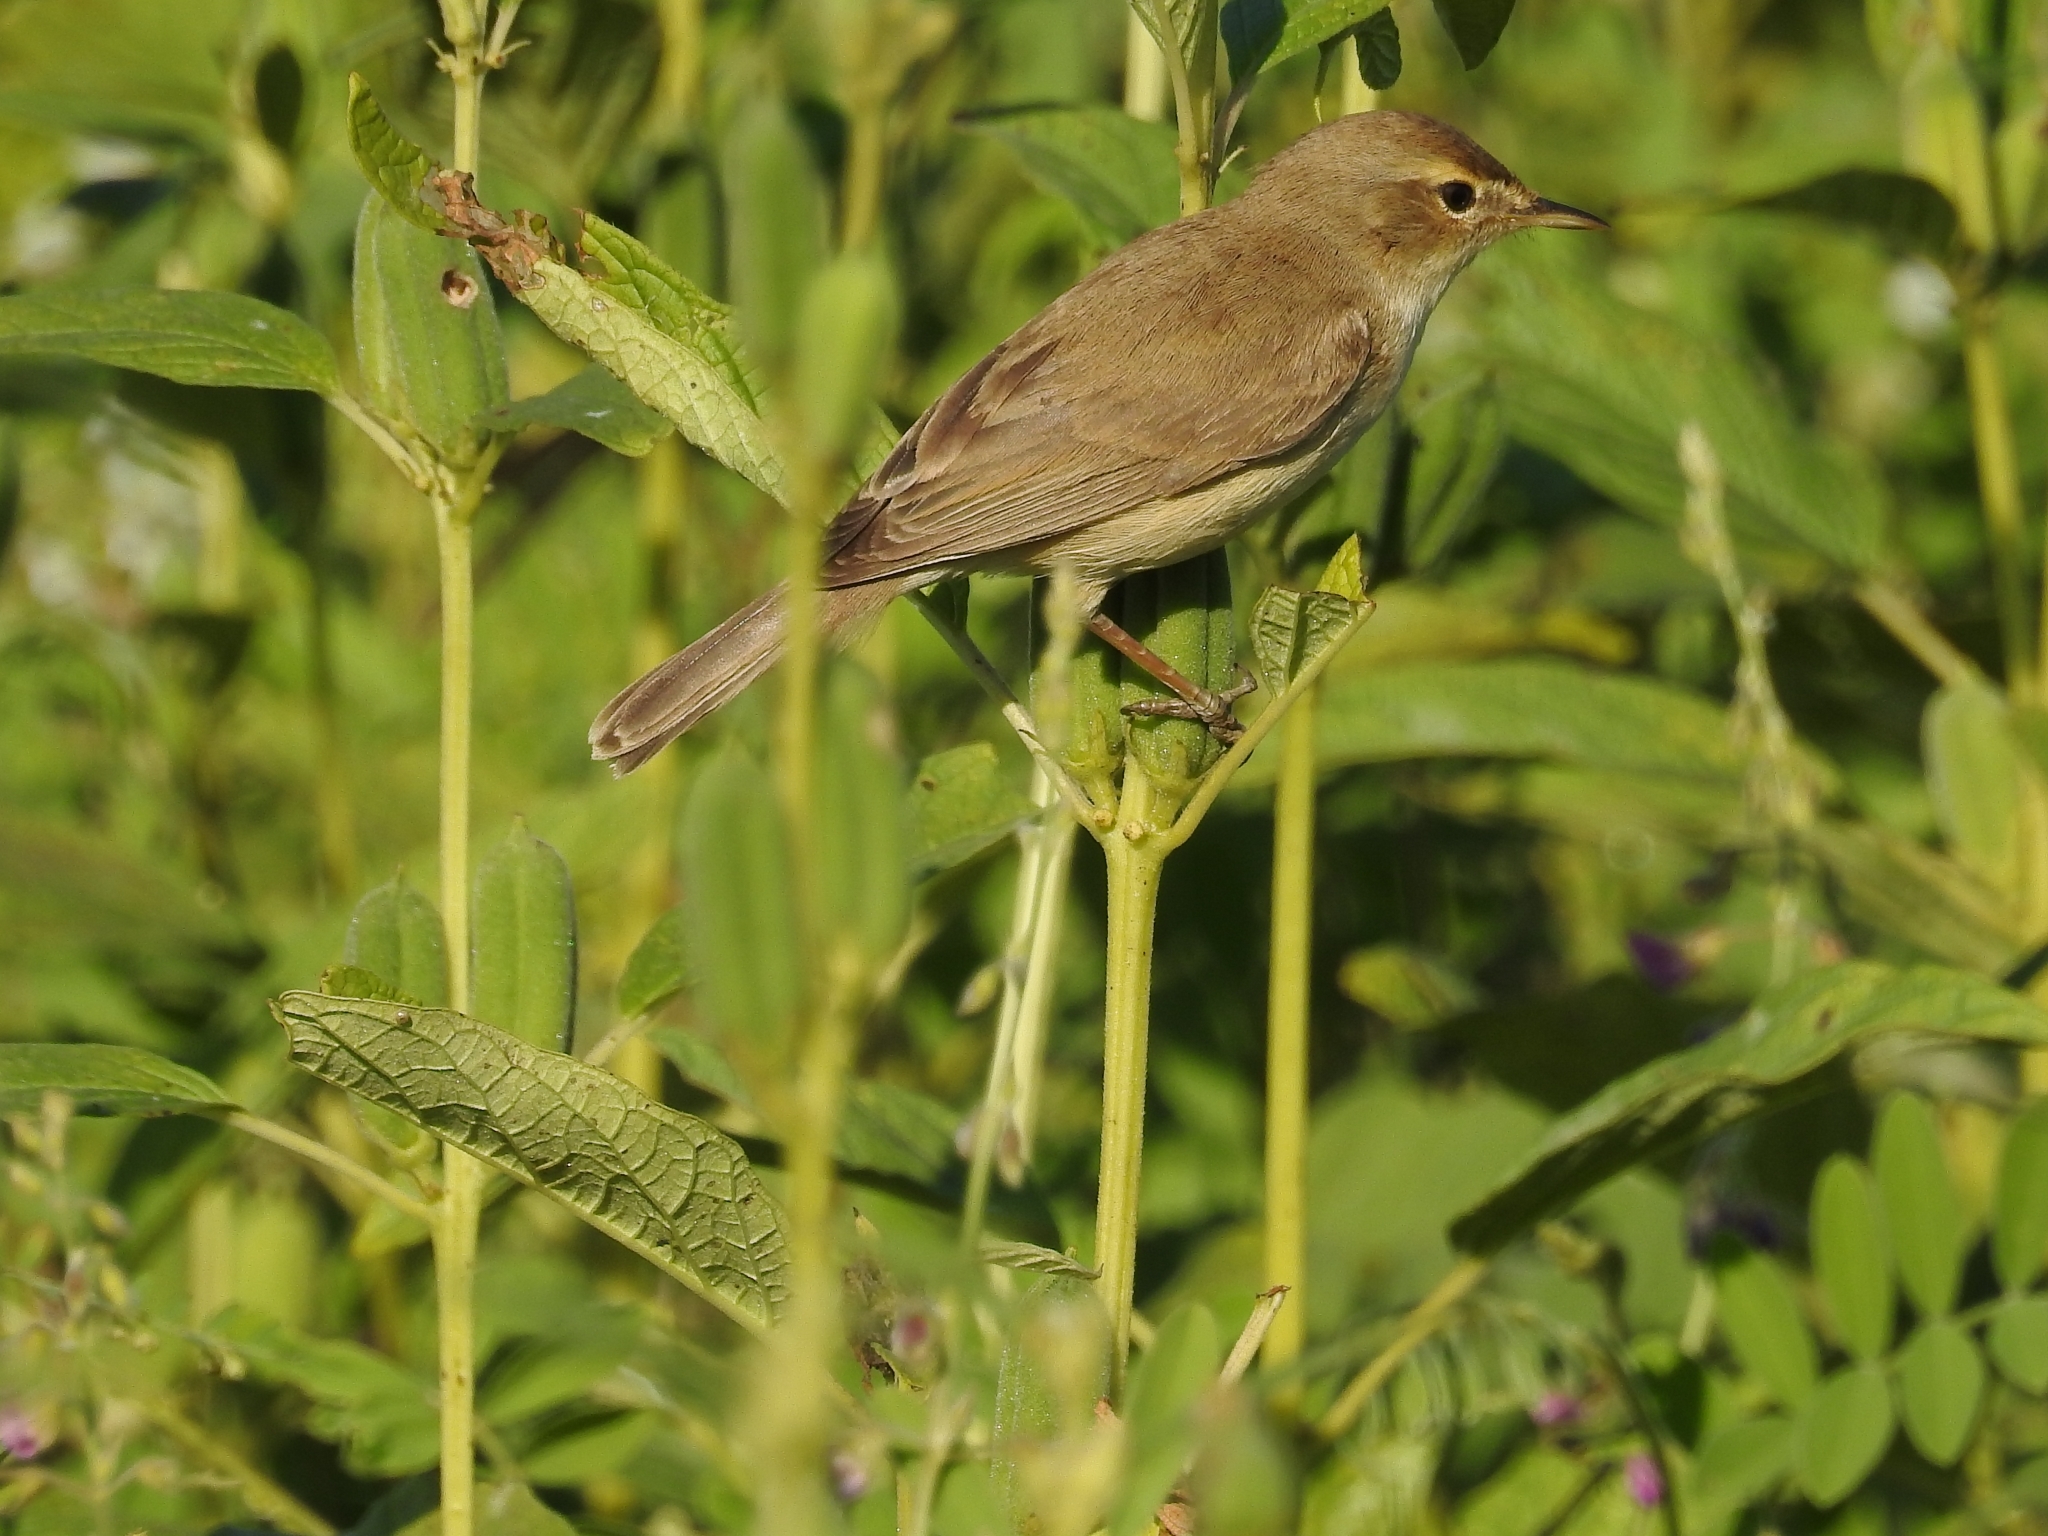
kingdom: Animalia
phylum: Chordata
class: Aves
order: Passeriformes
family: Acrocephalidae
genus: Iduna
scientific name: Iduna caligata
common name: Booted warbler
